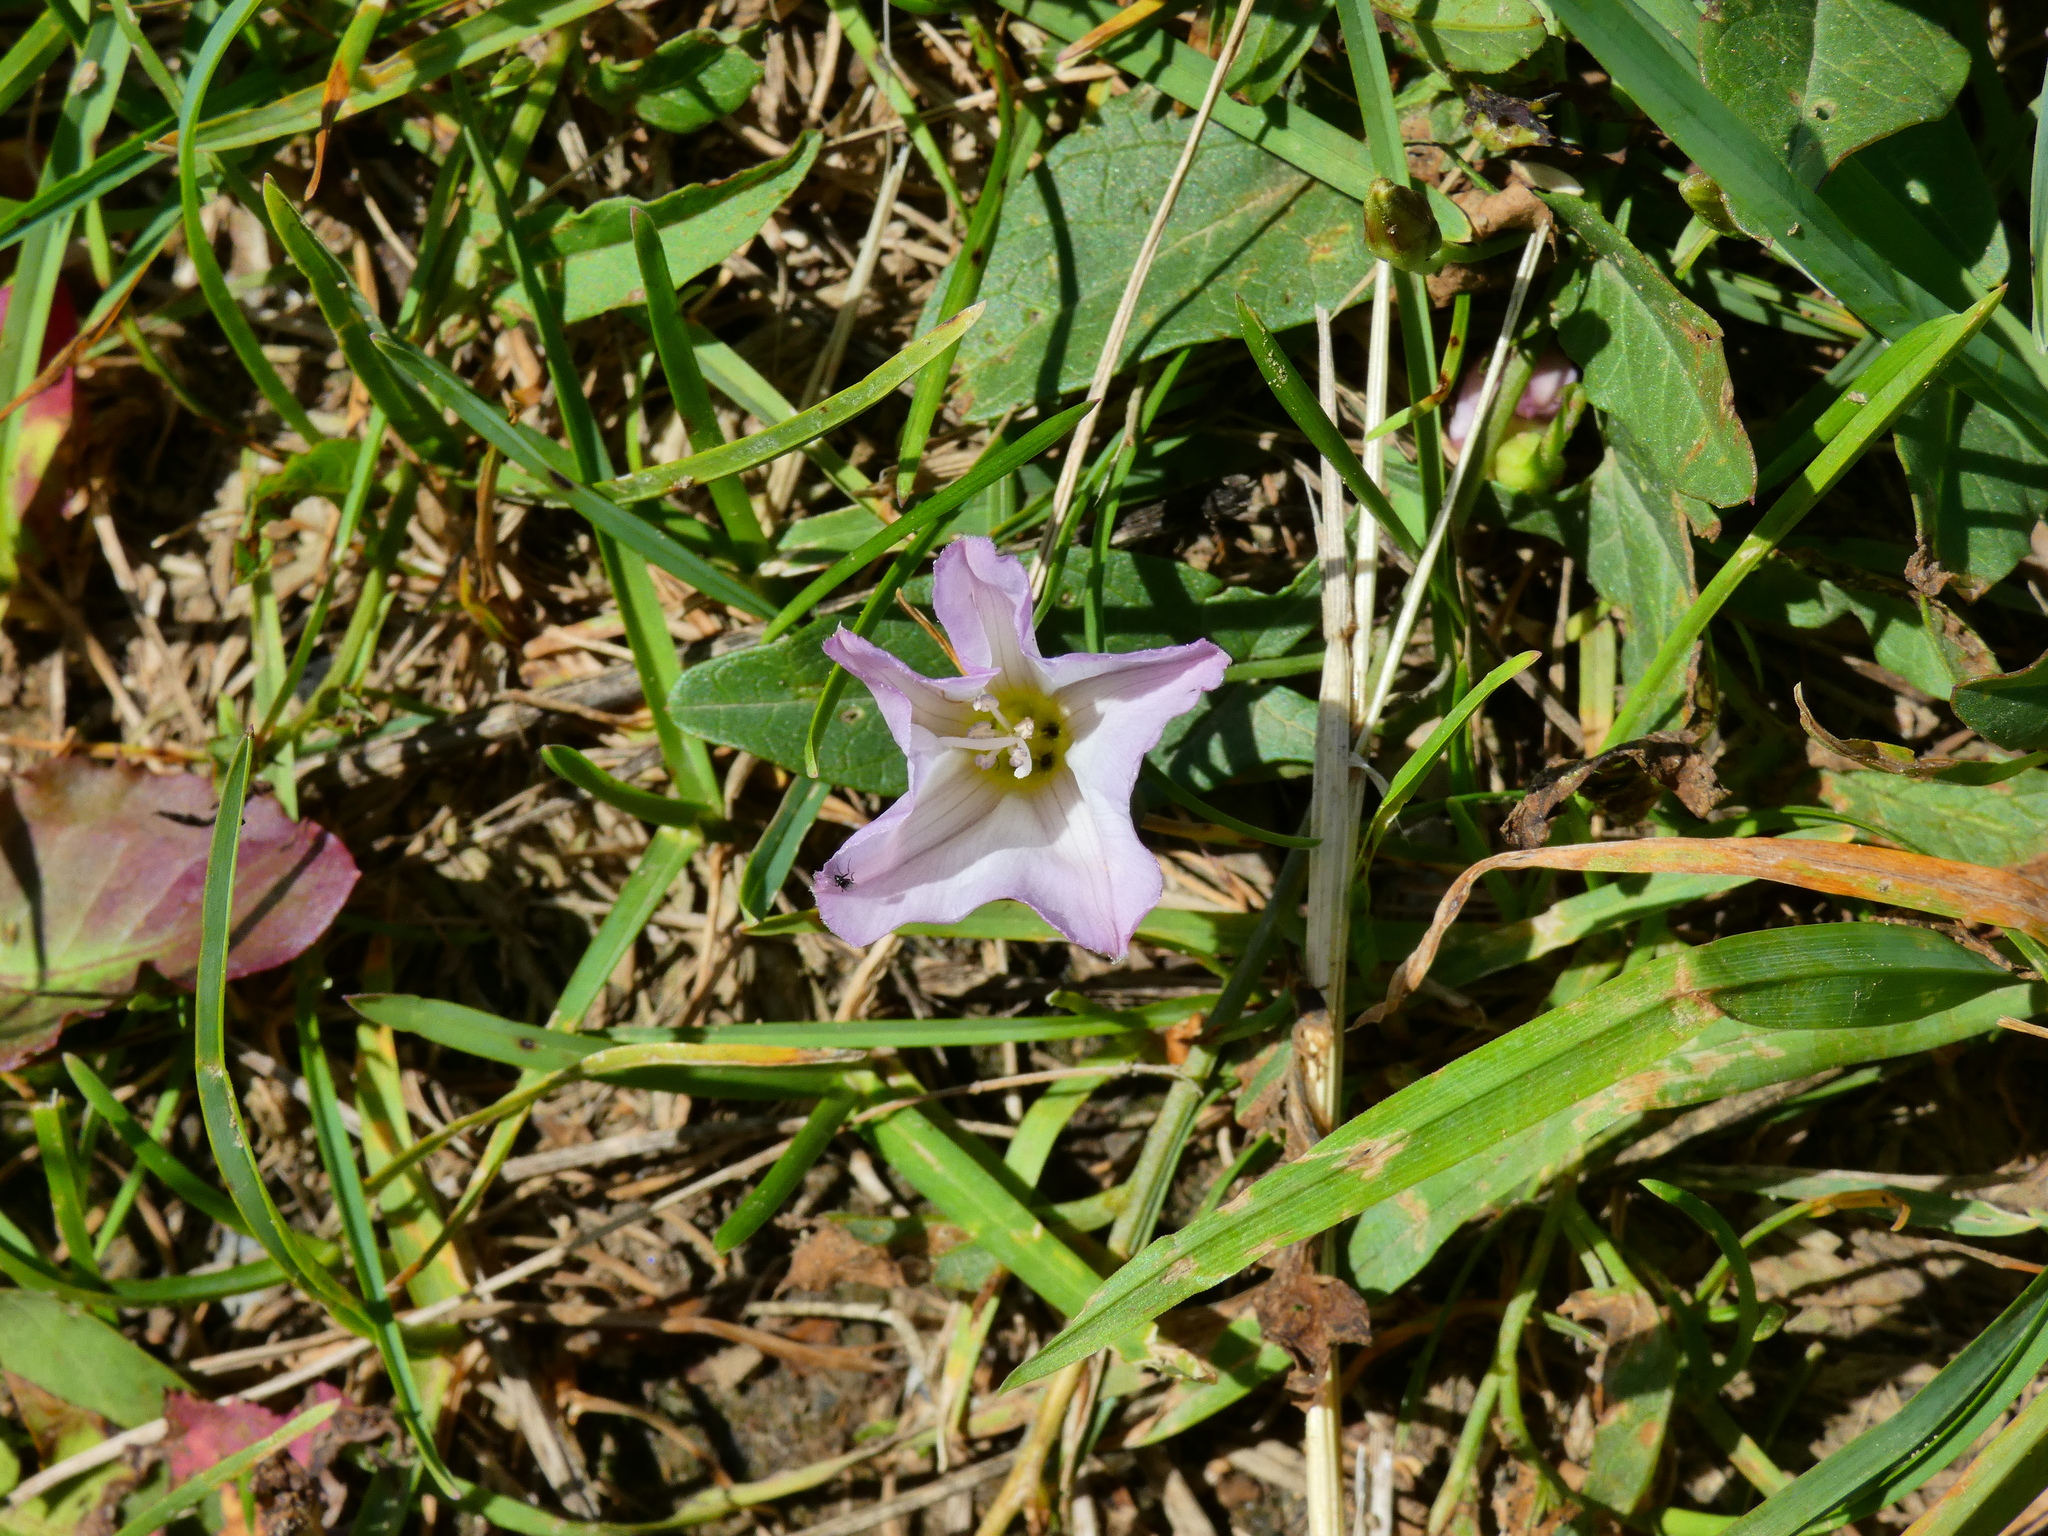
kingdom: Plantae
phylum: Tracheophyta
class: Magnoliopsida
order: Solanales
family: Convolvulaceae
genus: Convolvulus
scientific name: Convolvulus arvensis
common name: Field bindweed
